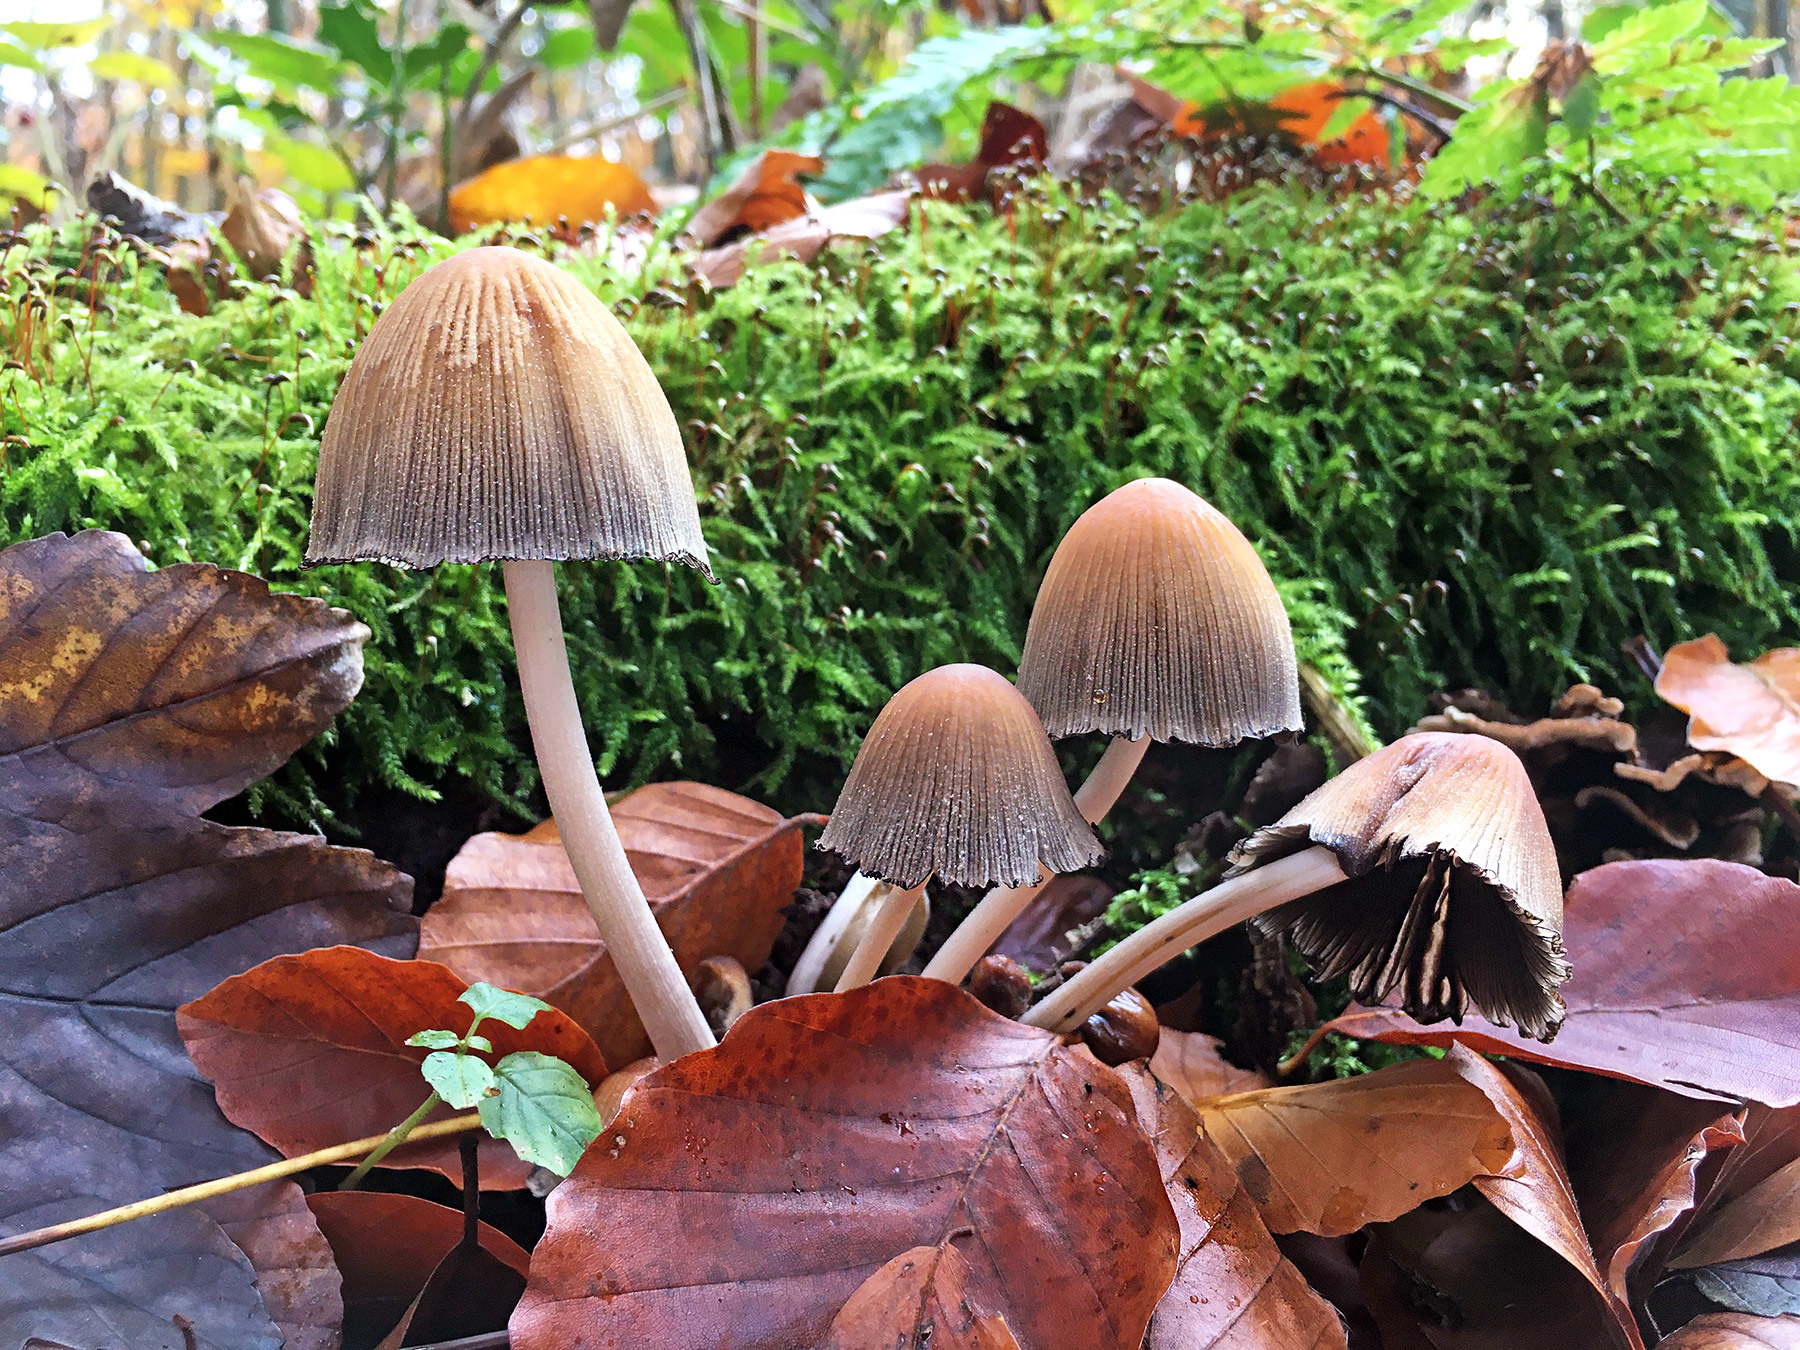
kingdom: Fungi
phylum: Basidiomycota
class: Agaricomycetes
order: Agaricales
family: Psathyrellaceae
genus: Coprinellus
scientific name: Coprinellus micaceus
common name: Glistening ink-cap
